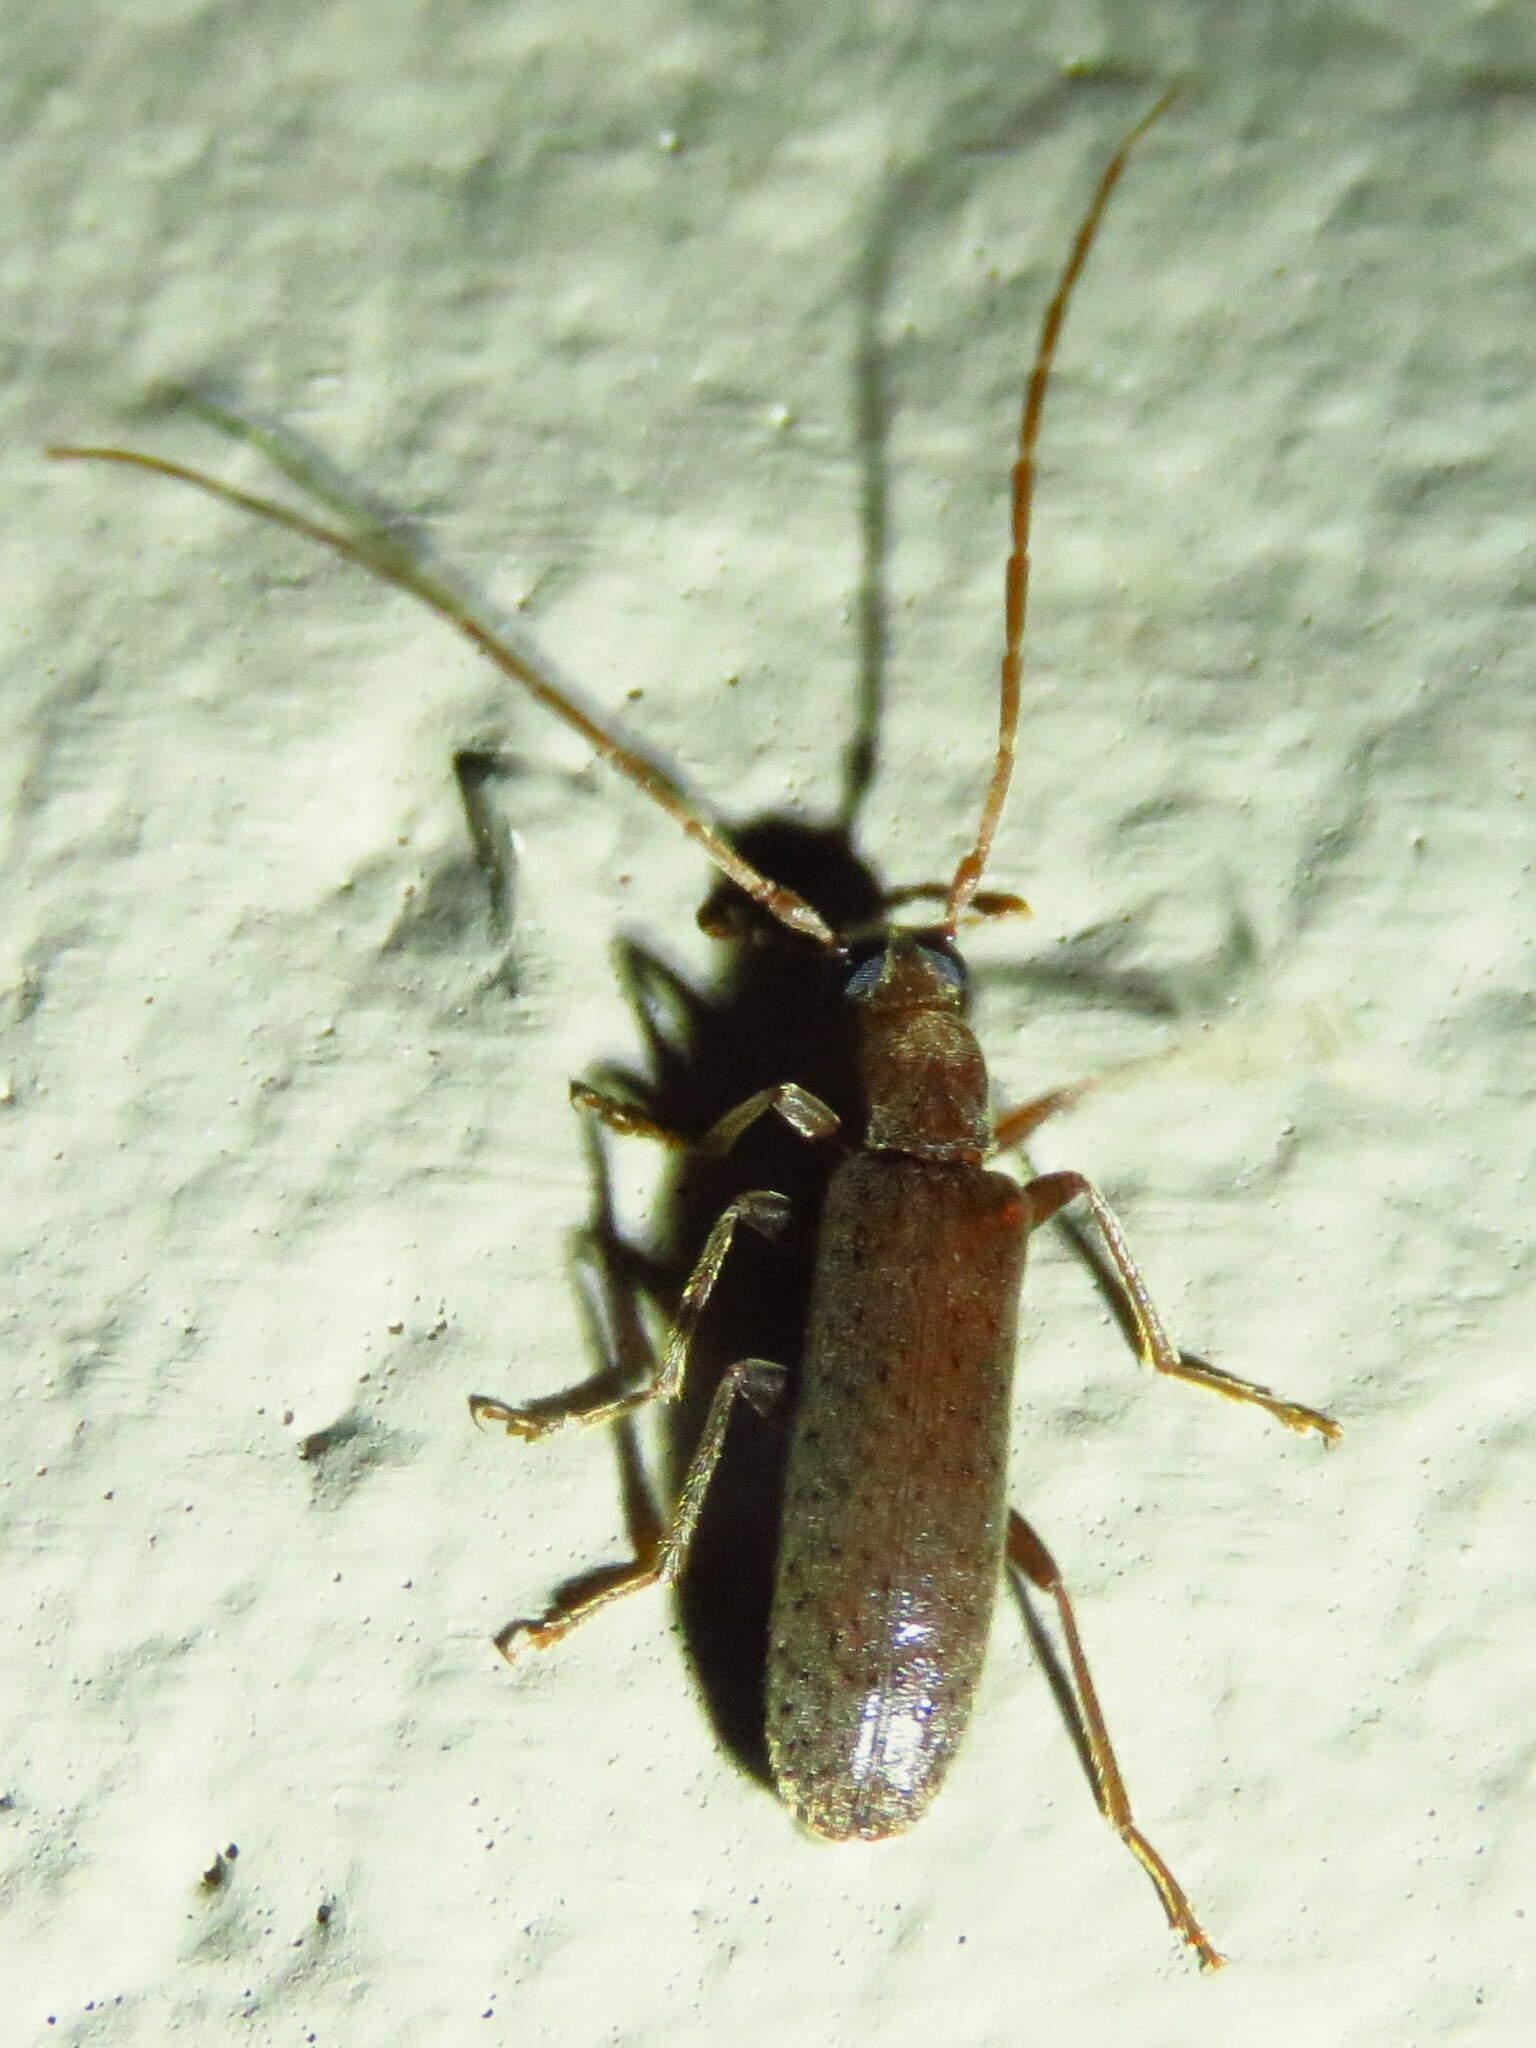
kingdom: Animalia
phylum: Arthropoda
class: Insecta
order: Coleoptera
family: Oedemeridae
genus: Sparedrus
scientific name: Sparedrus aspersus
